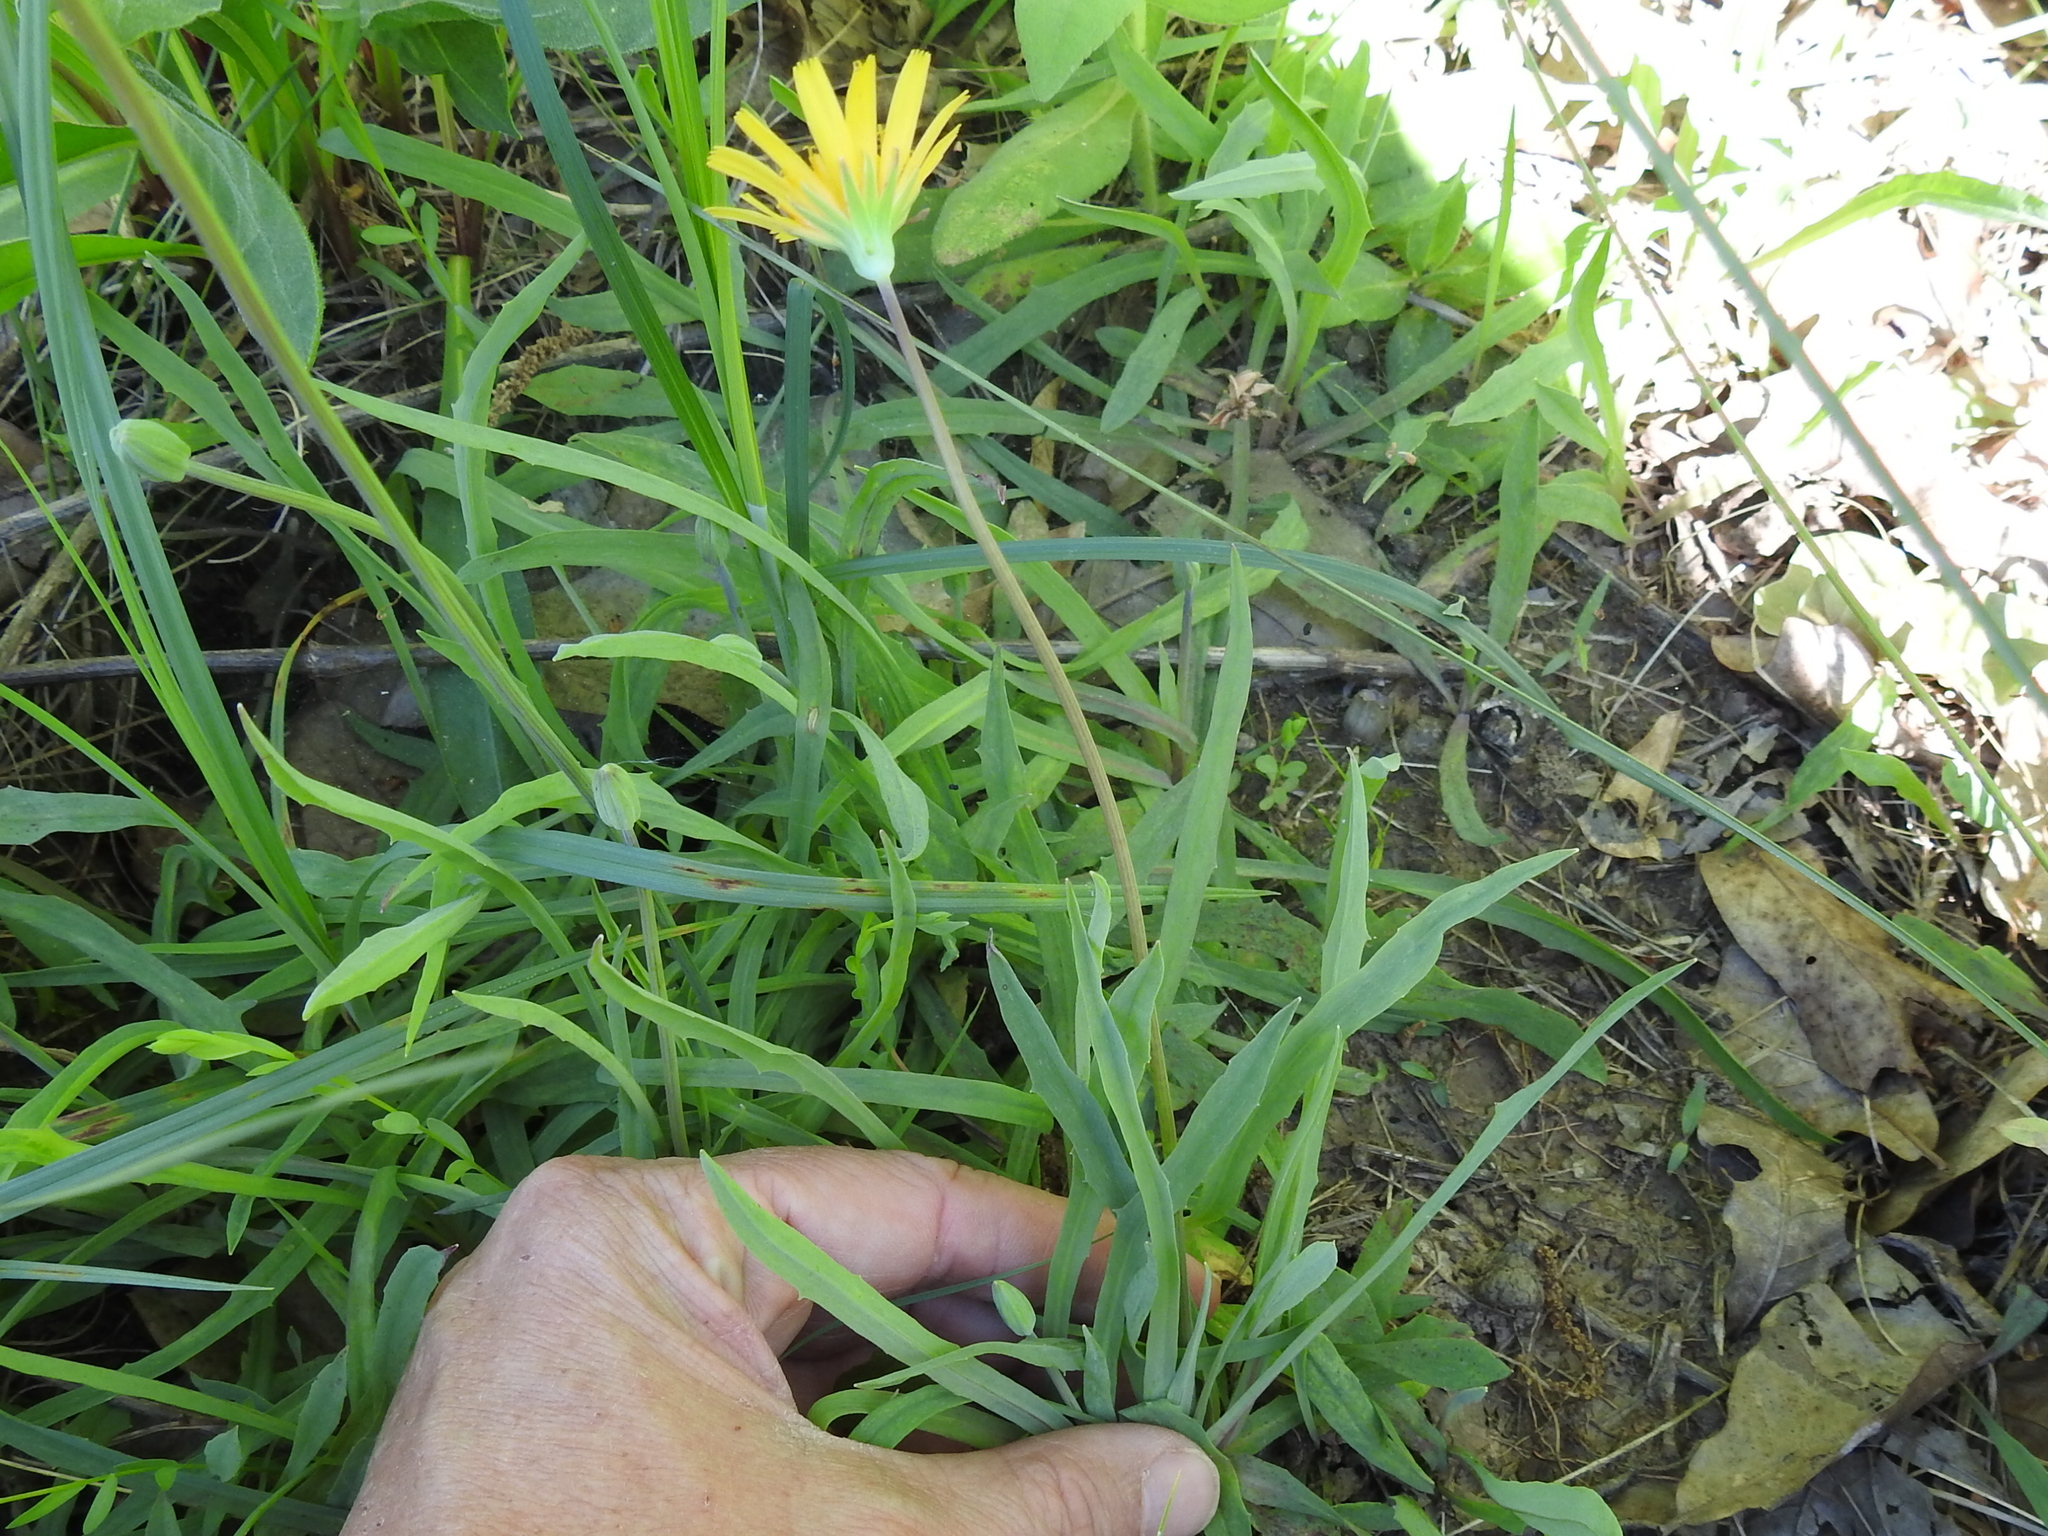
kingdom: Plantae
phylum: Tracheophyta
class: Magnoliopsida
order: Asterales
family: Asteraceae
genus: Krigia
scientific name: Krigia dandelion
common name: Colonial dwarf-dandelion
